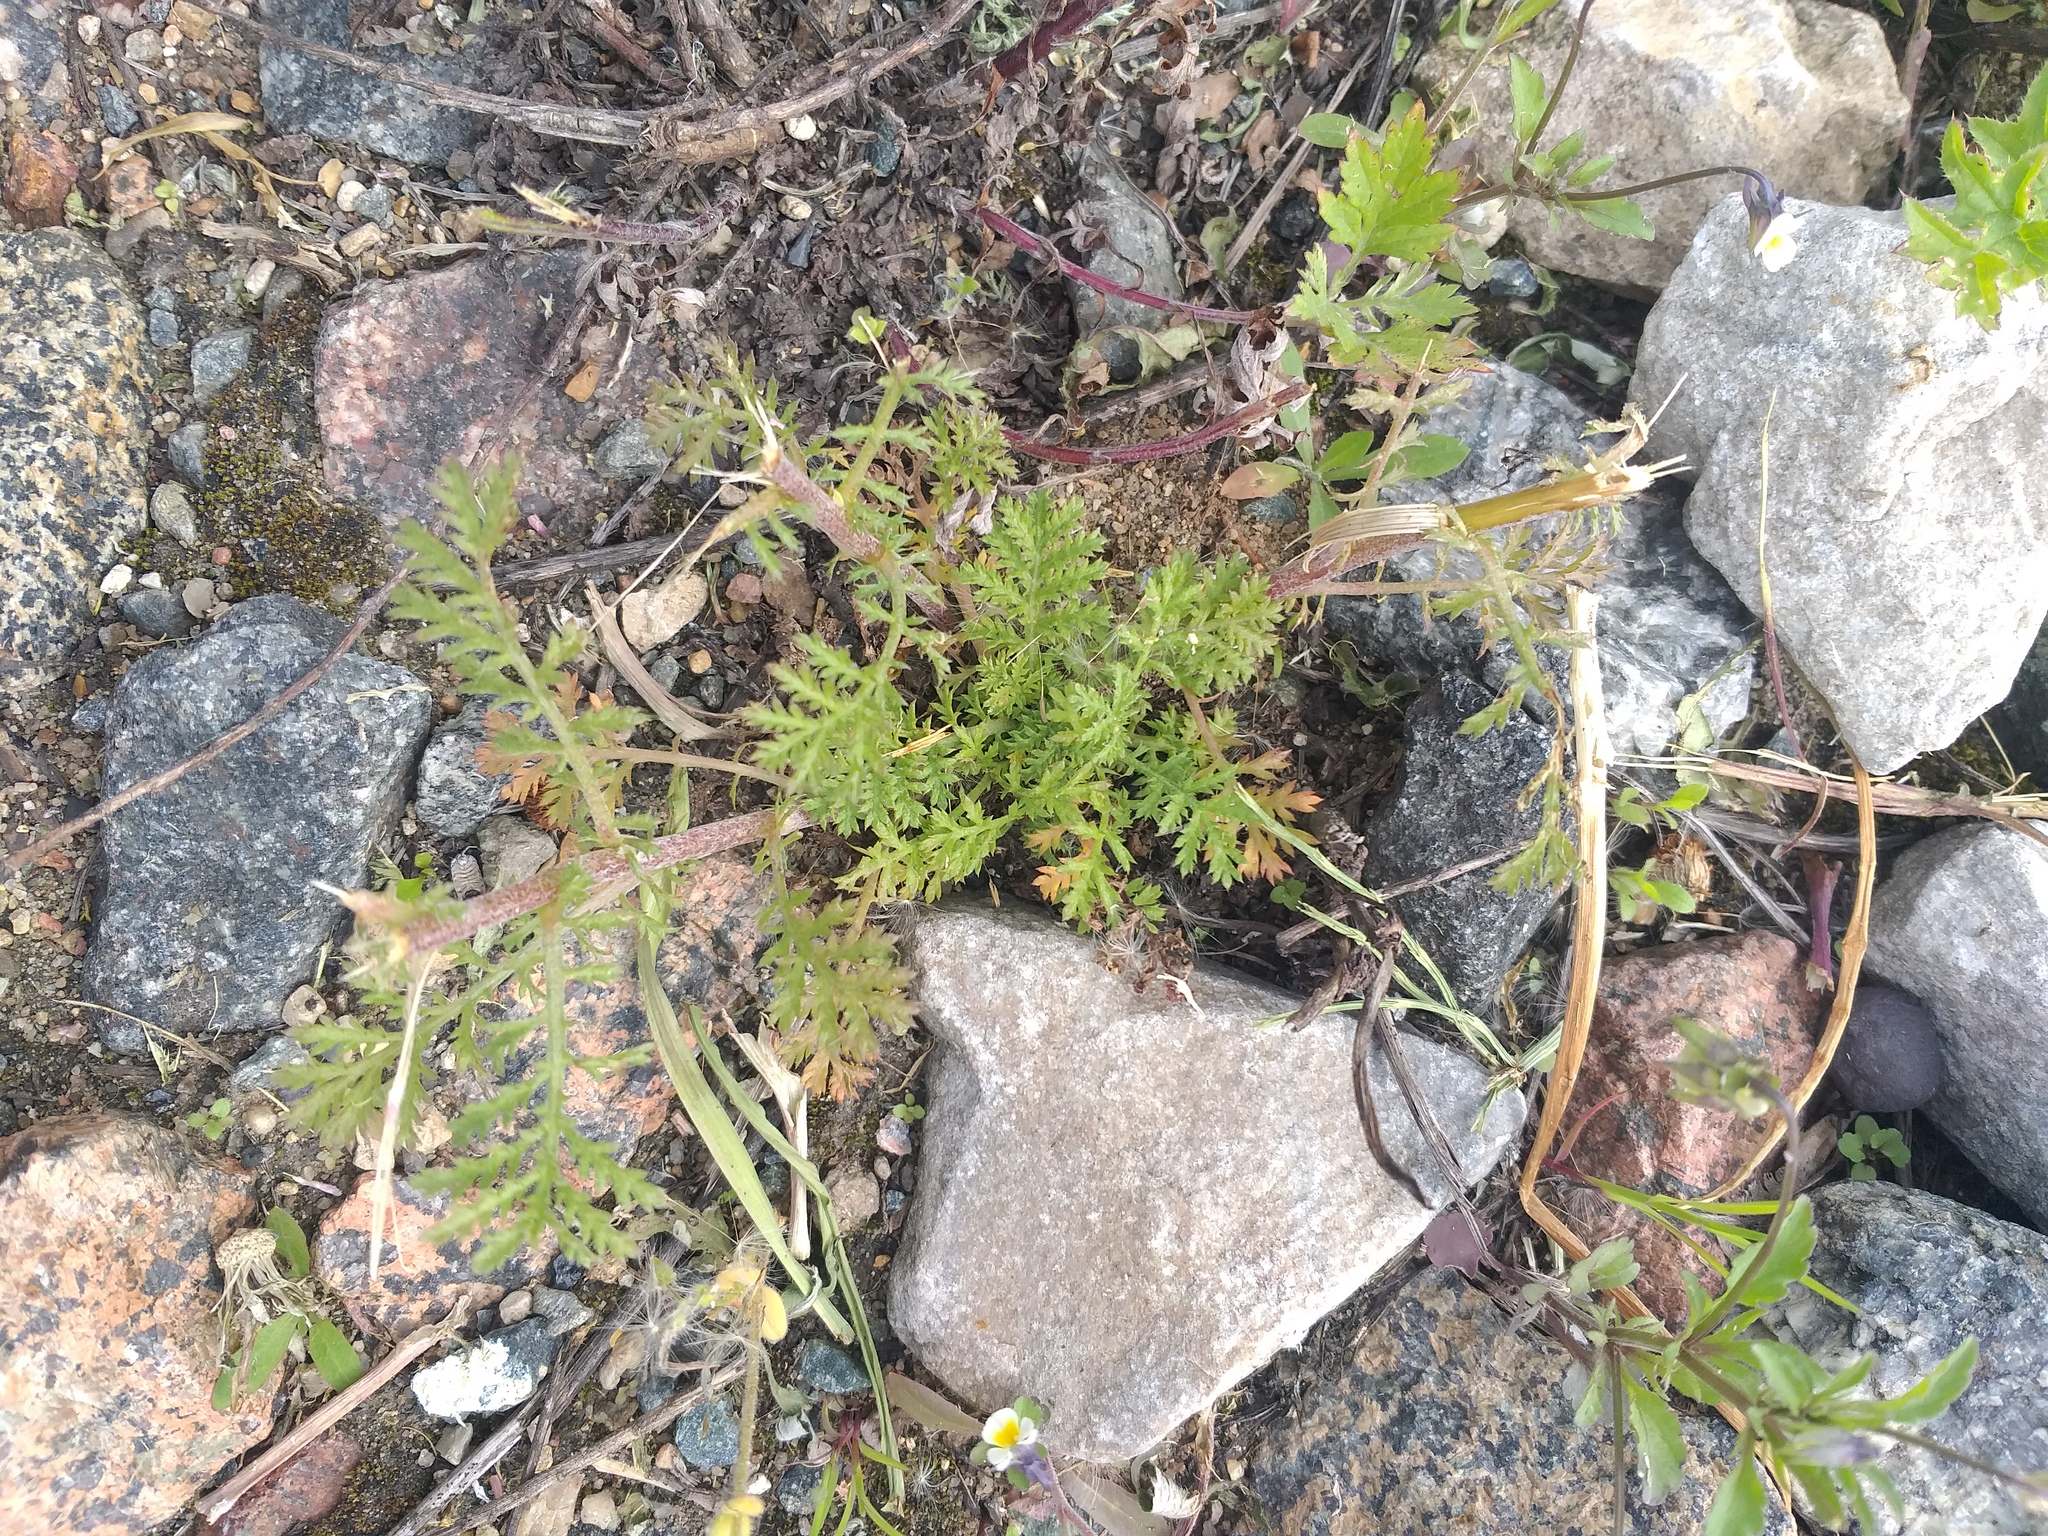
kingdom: Plantae
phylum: Tracheophyta
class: Magnoliopsida
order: Asterales
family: Asteraceae
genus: Cota
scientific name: Cota tinctoria
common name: Golden chamomile
